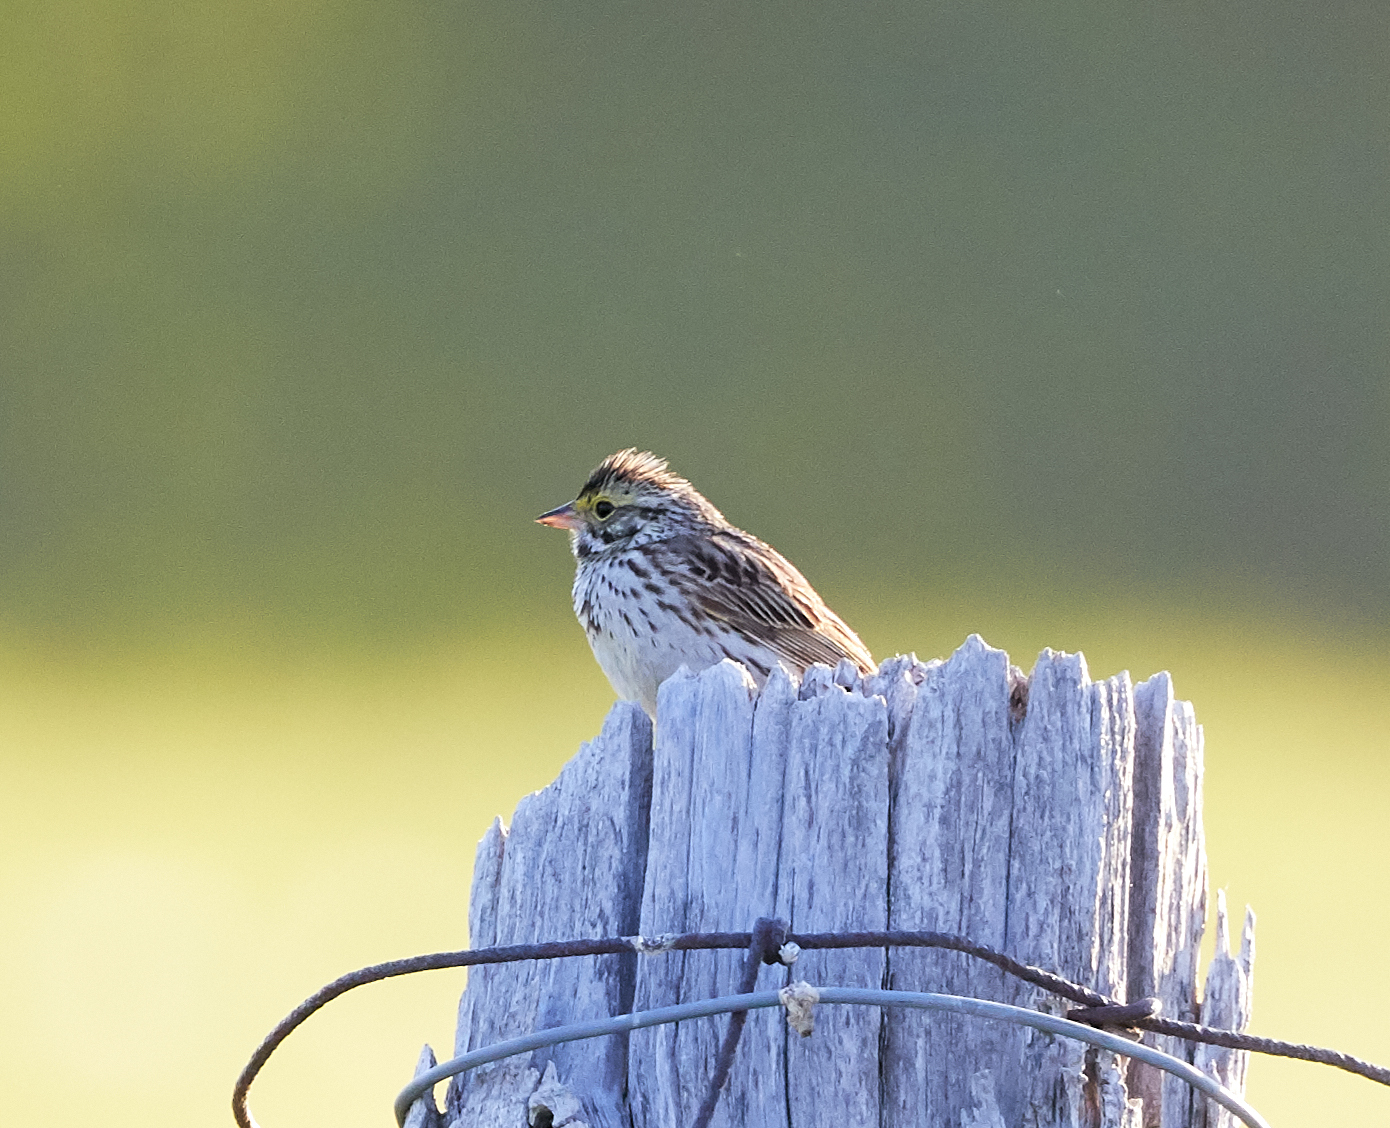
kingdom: Animalia
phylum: Chordata
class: Aves
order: Passeriformes
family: Passerellidae
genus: Passerculus
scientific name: Passerculus sandwichensis
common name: Savannah sparrow
